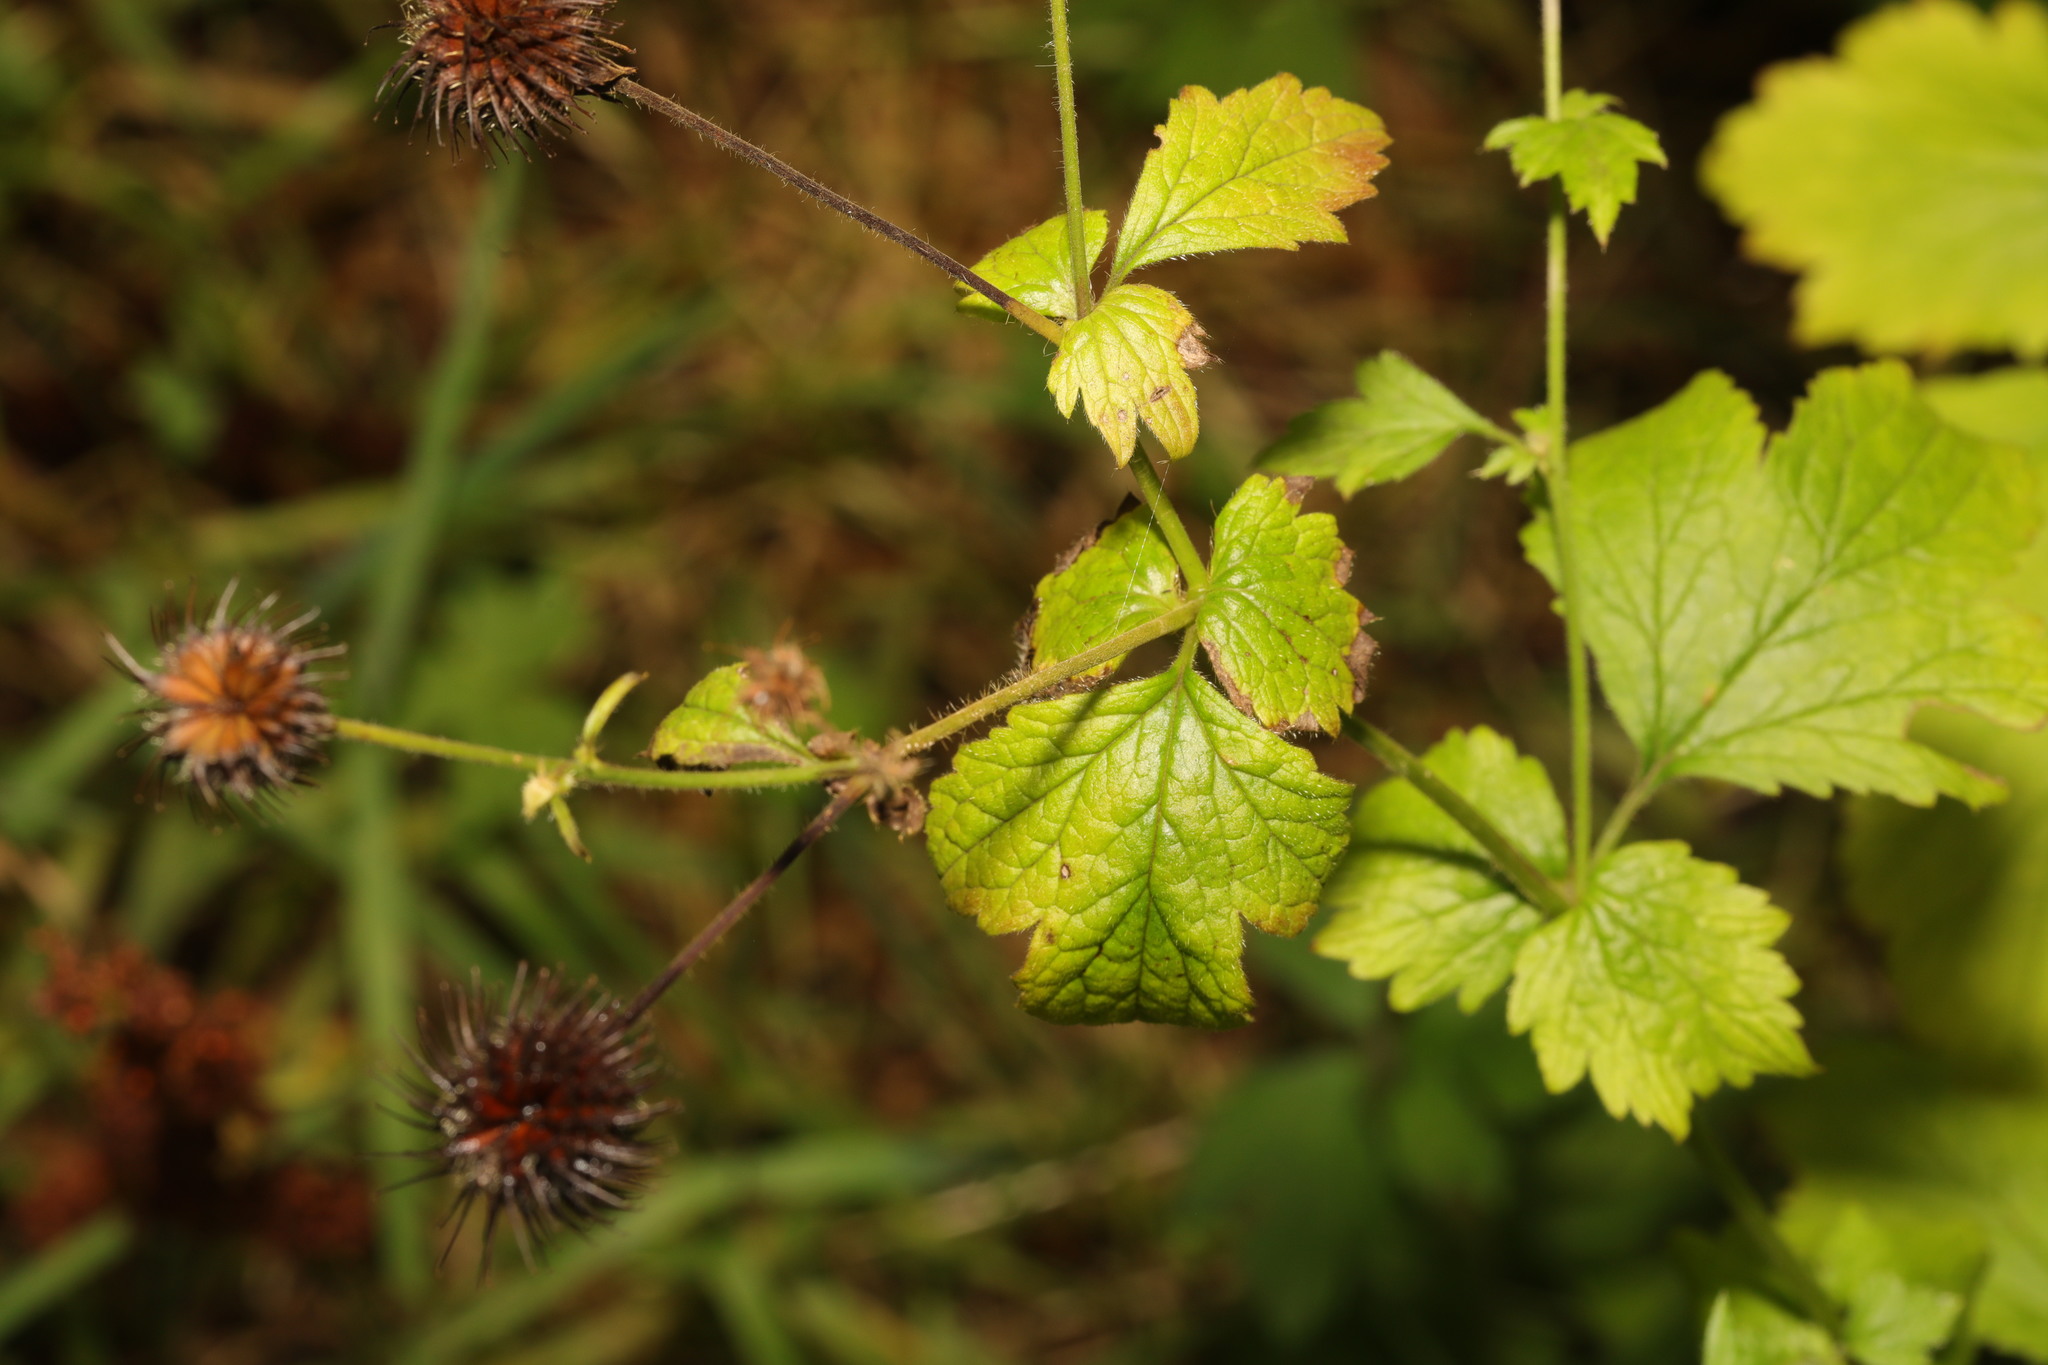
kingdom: Plantae
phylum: Tracheophyta
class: Magnoliopsida
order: Rosales
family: Rosaceae
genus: Geum
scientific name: Geum urbanum
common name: Wood avens
